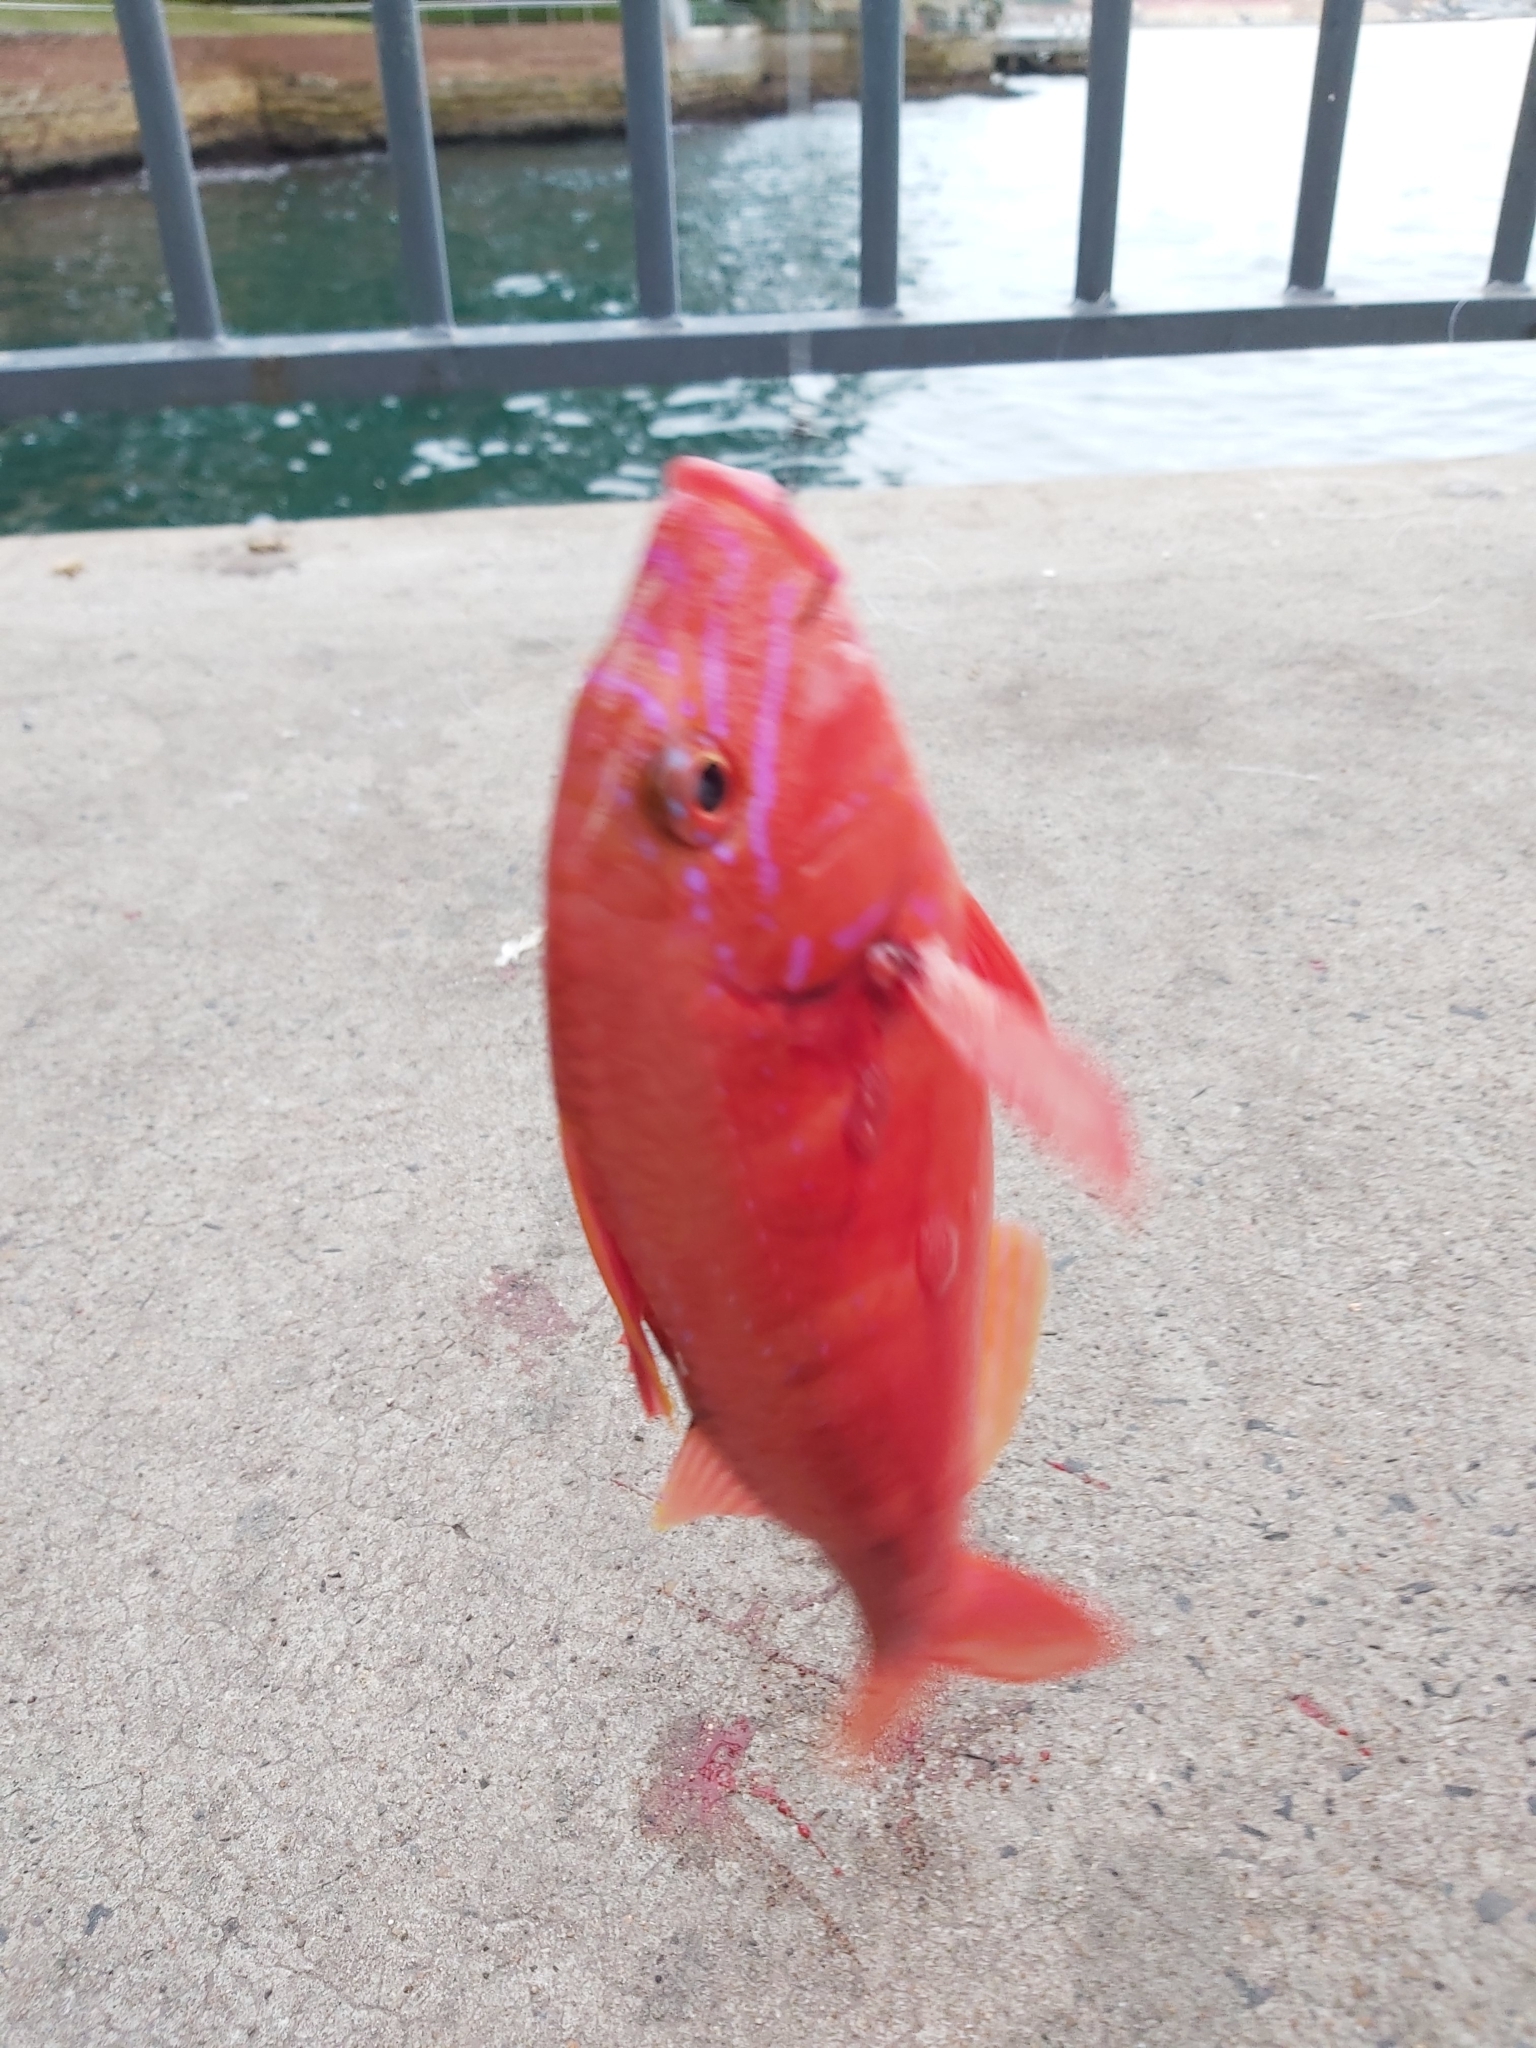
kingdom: Animalia
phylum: Chordata
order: Perciformes
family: Mullidae
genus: Upeneichthys
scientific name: Upeneichthys lineatus
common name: Red mullet
